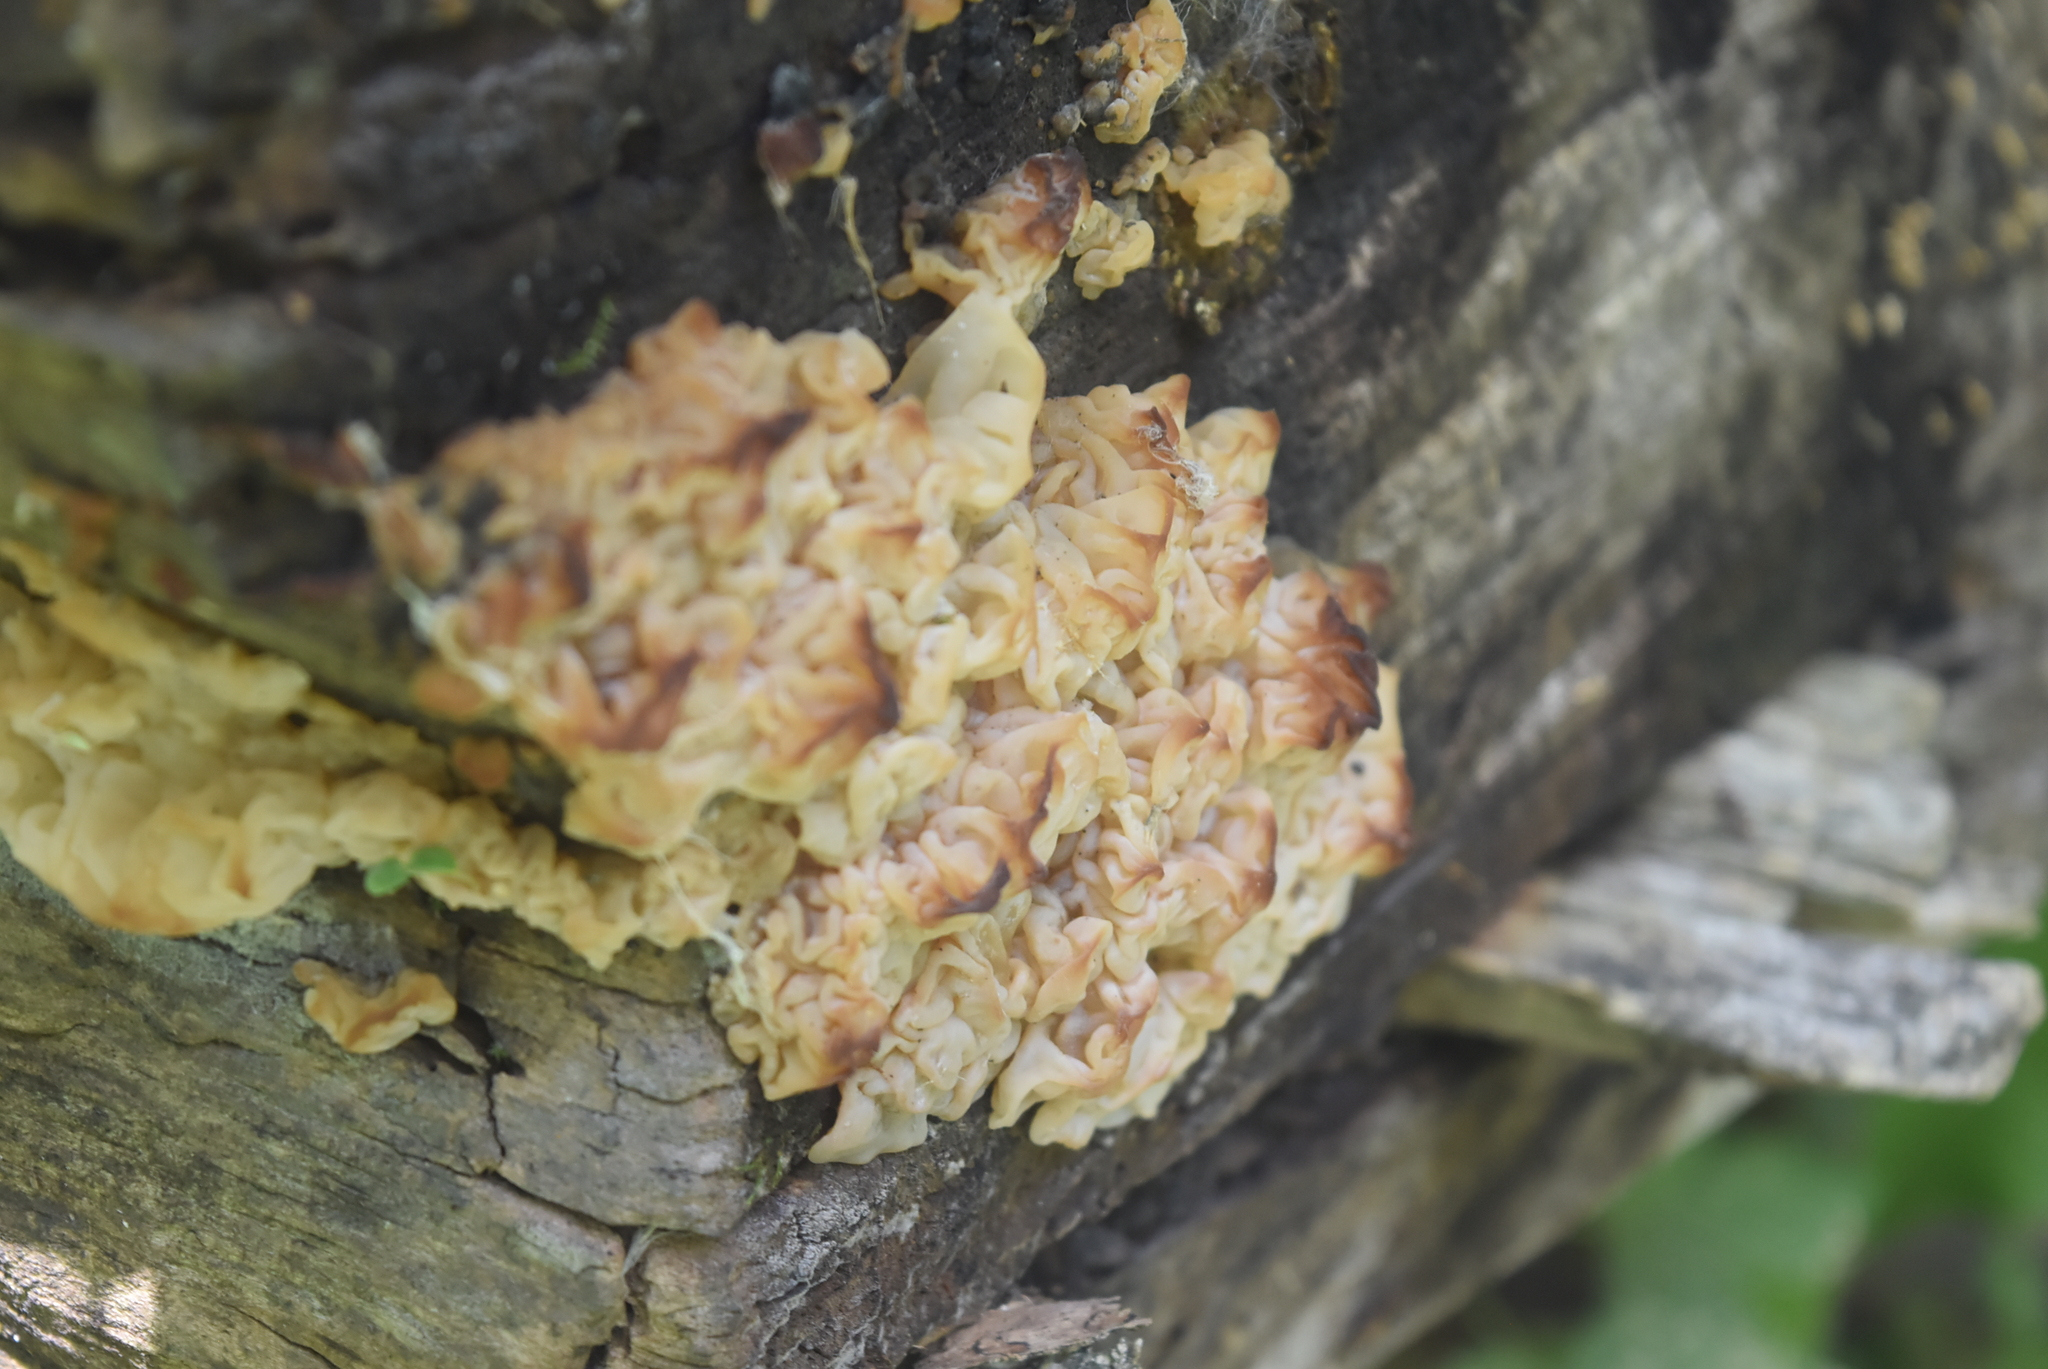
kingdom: Fungi
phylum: Basidiomycota
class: Agaricomycetes
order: Auriculariales
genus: Ductifera
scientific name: Ductifera pululahuana
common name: White jelly fungus
